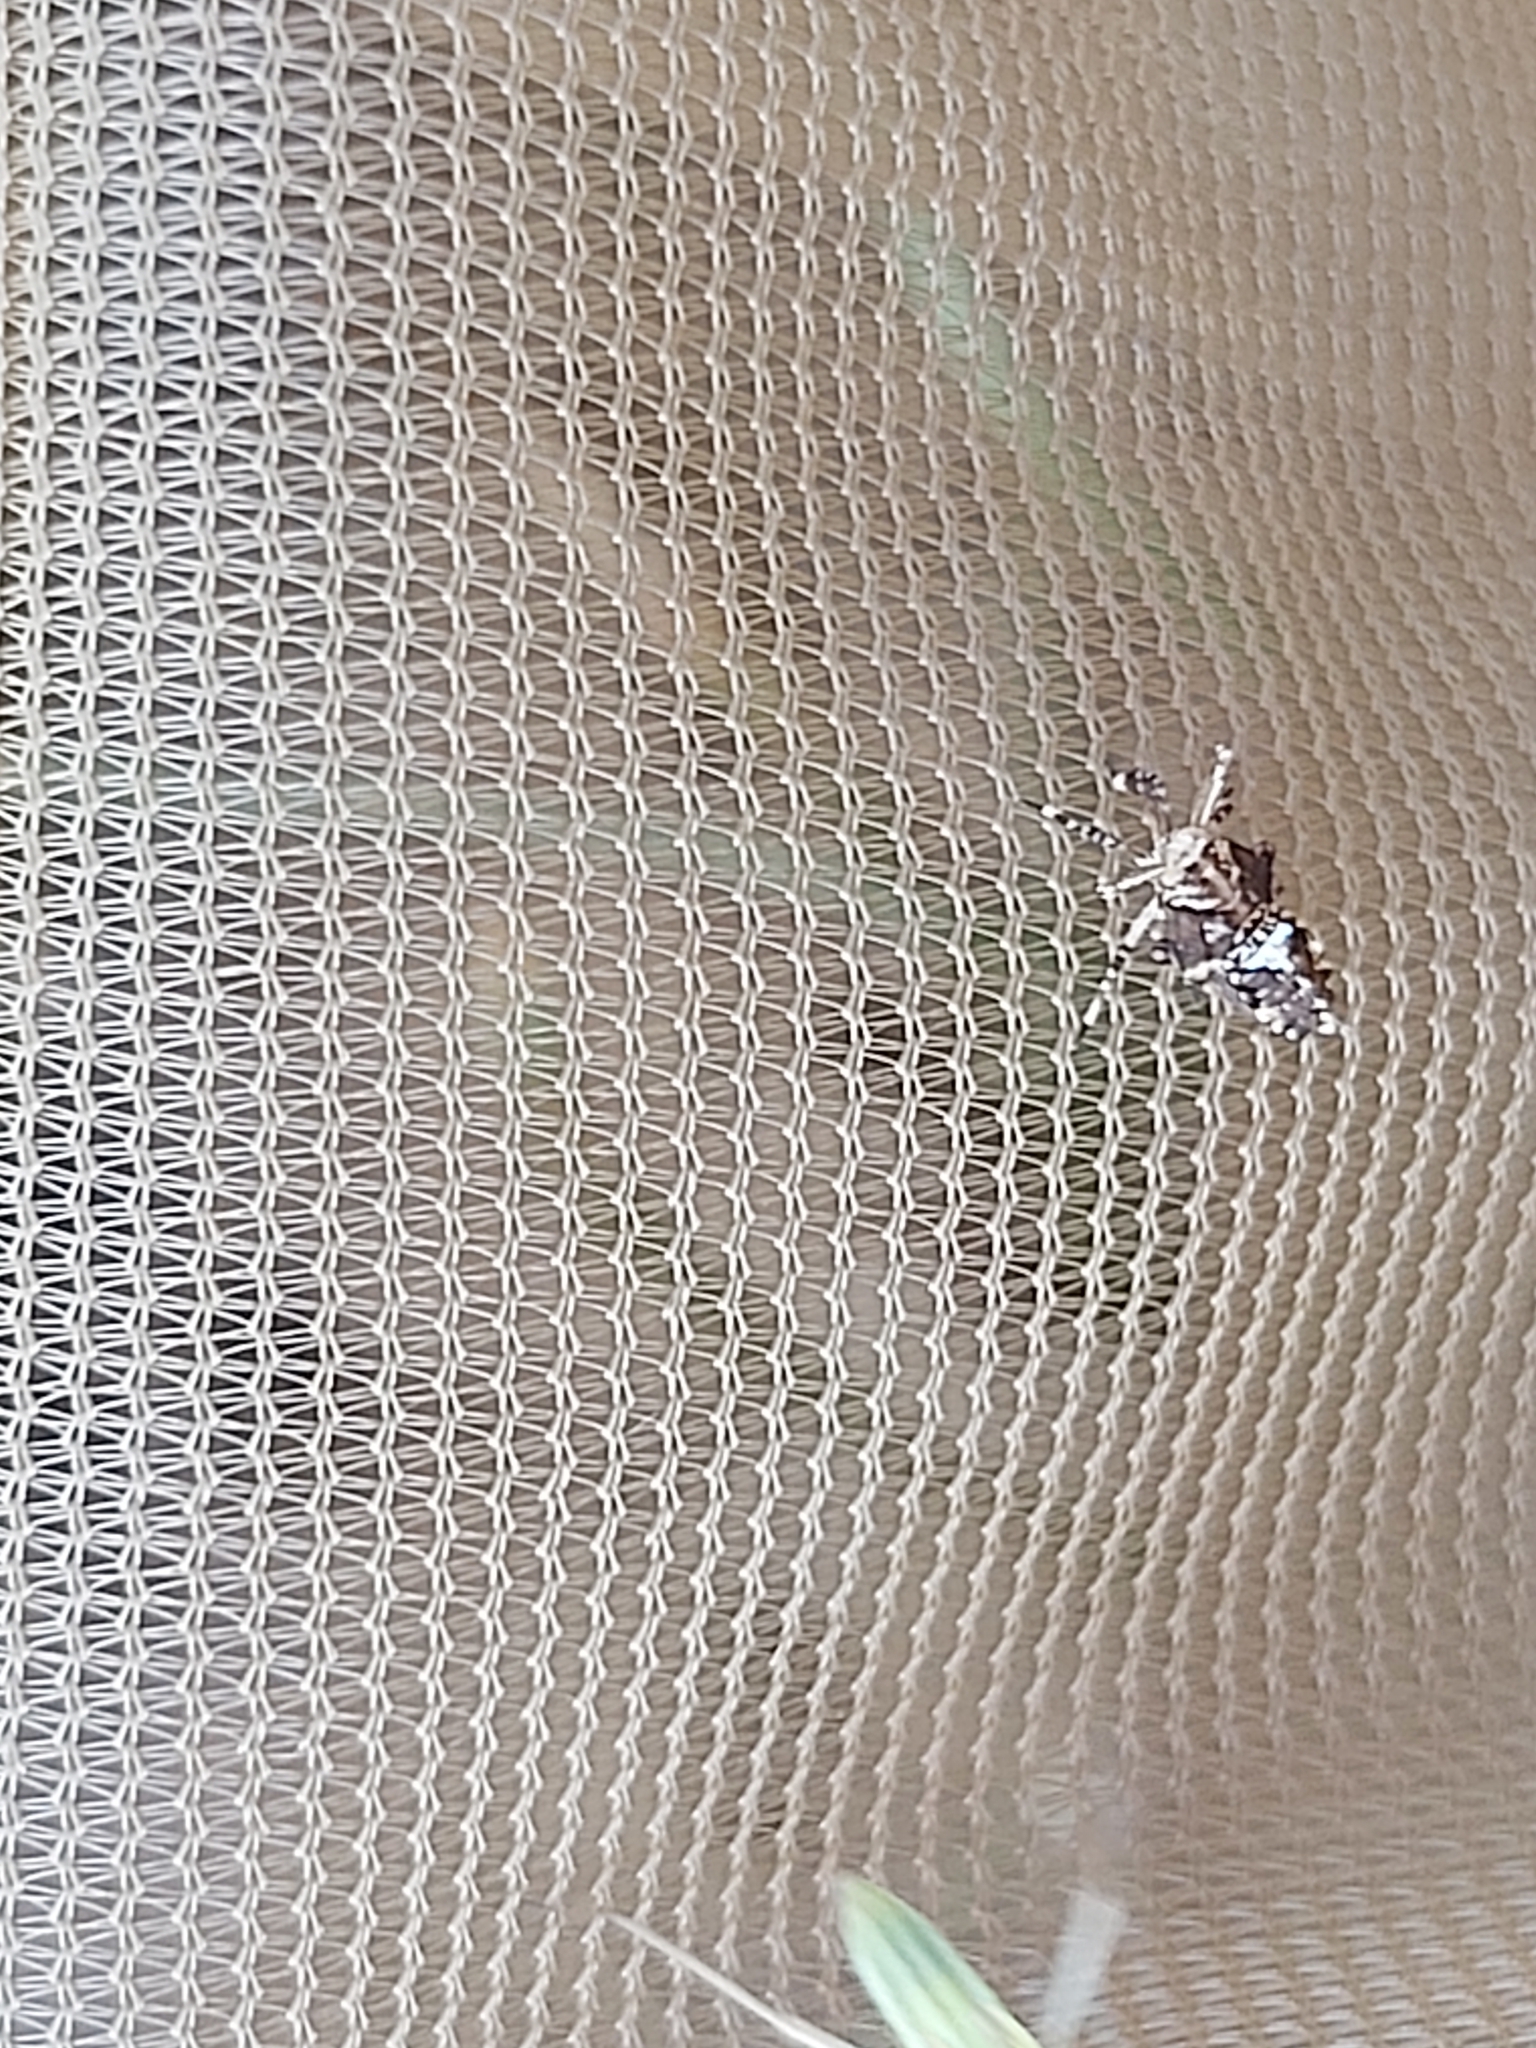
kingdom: Animalia
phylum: Arthropoda
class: Insecta
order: Hemiptera
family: Delphacidae
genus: Asiraca
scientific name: Asiraca clavicornis
